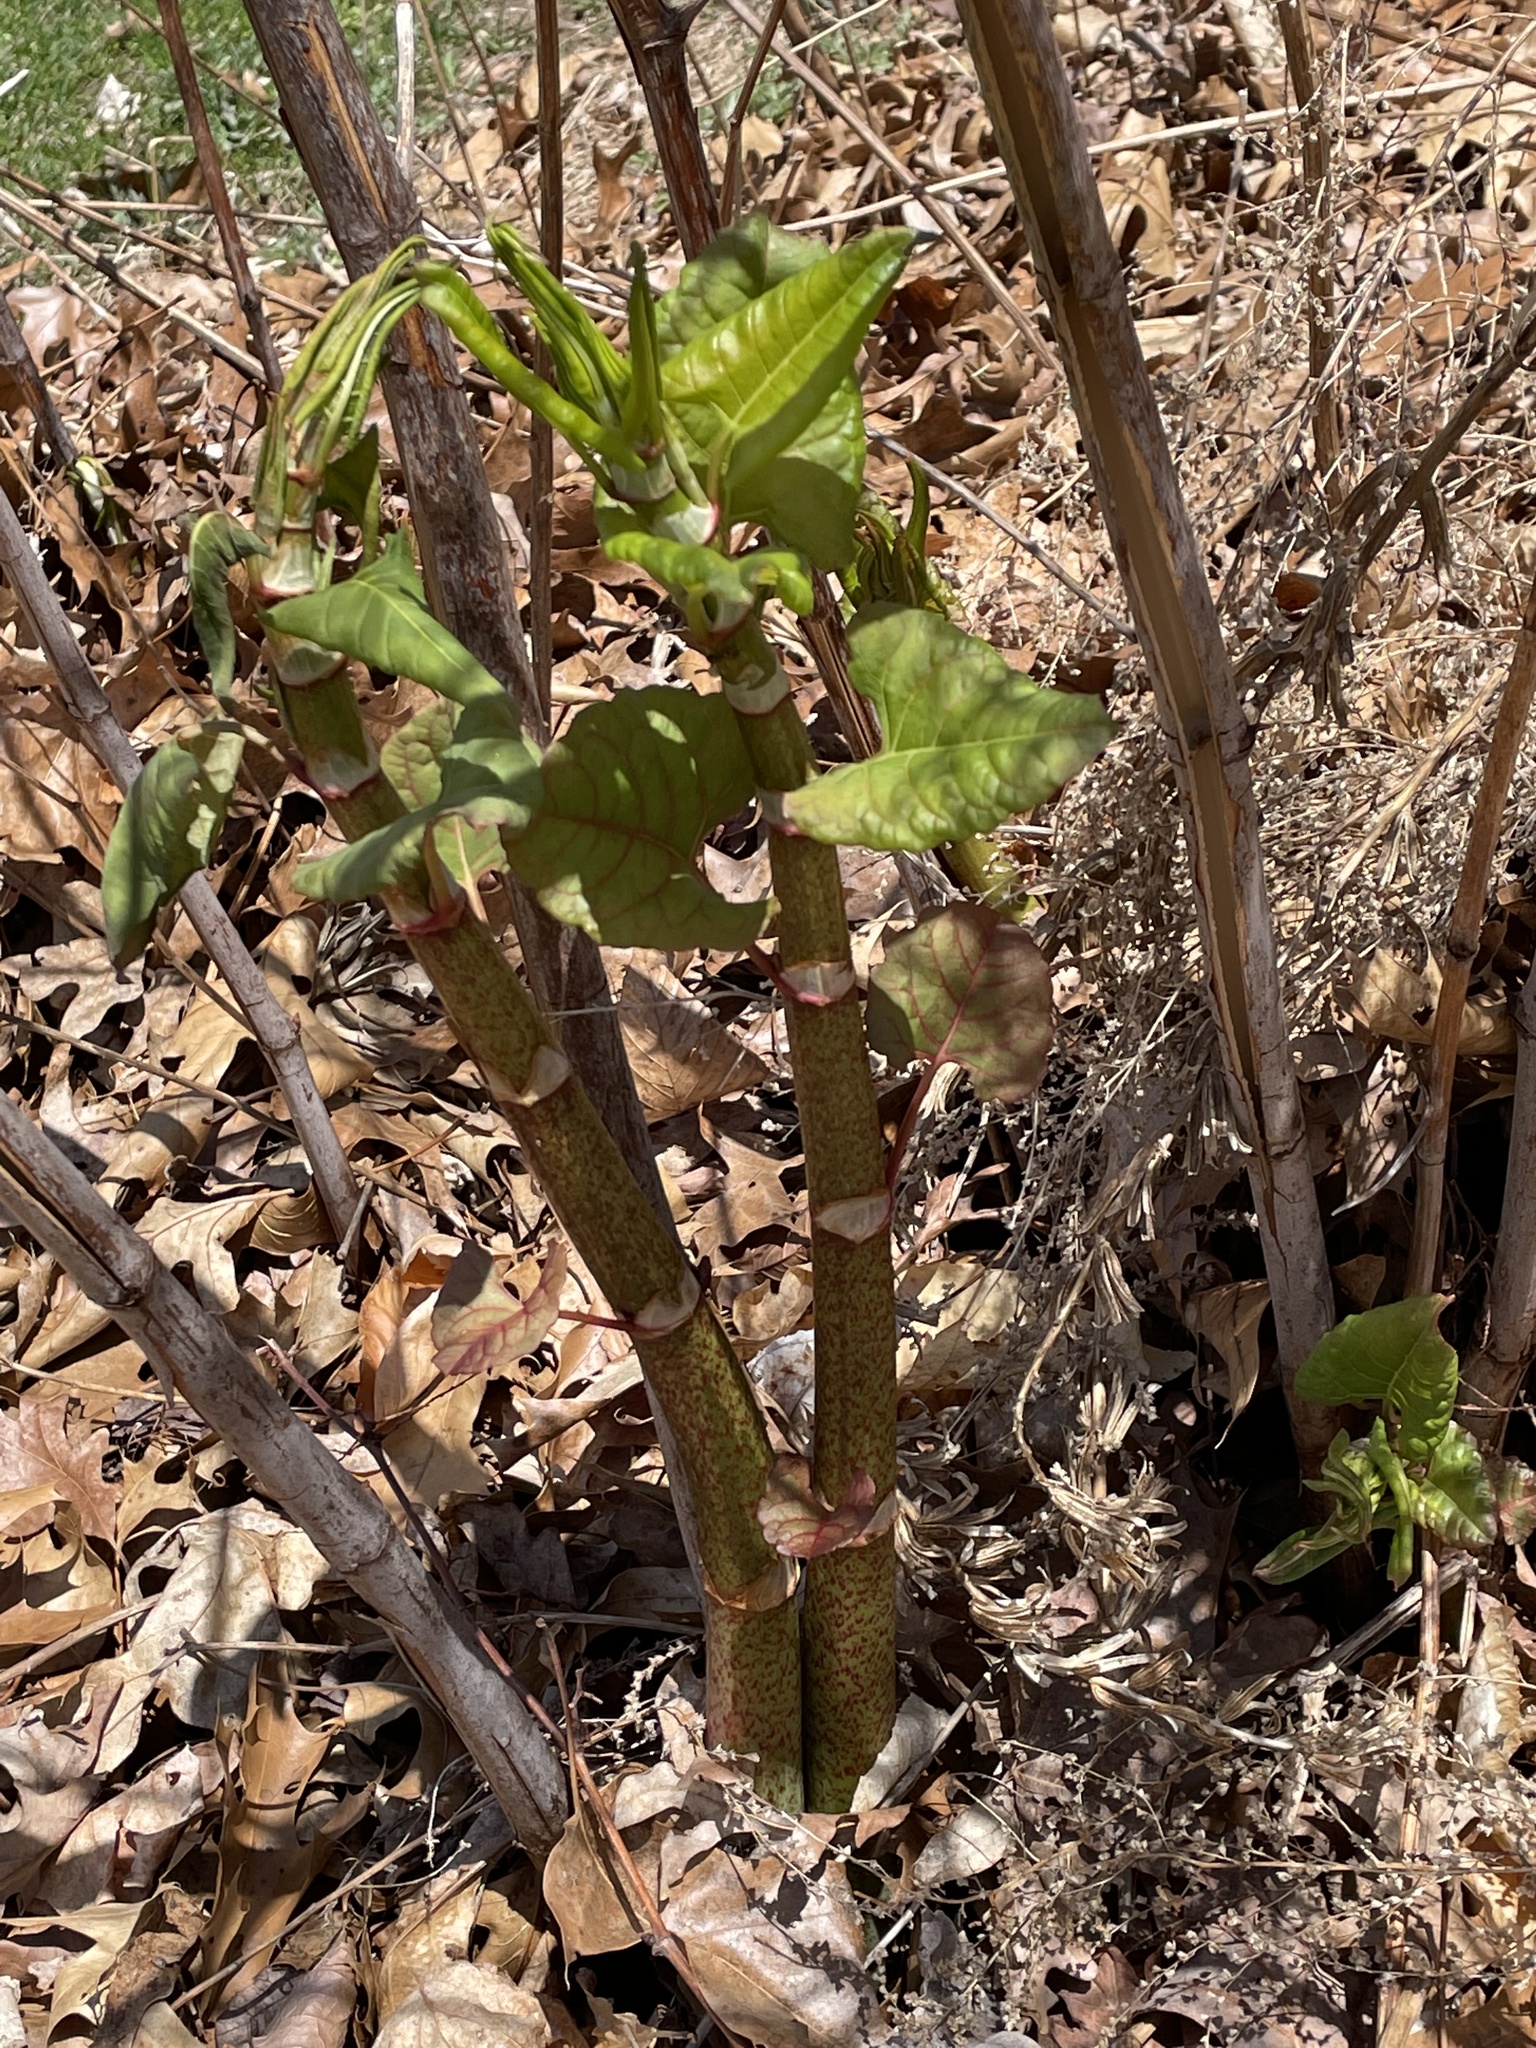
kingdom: Plantae
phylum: Tracheophyta
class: Magnoliopsida
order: Caryophyllales
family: Polygonaceae
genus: Reynoutria
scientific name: Reynoutria japonica
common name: Japanese knotweed
